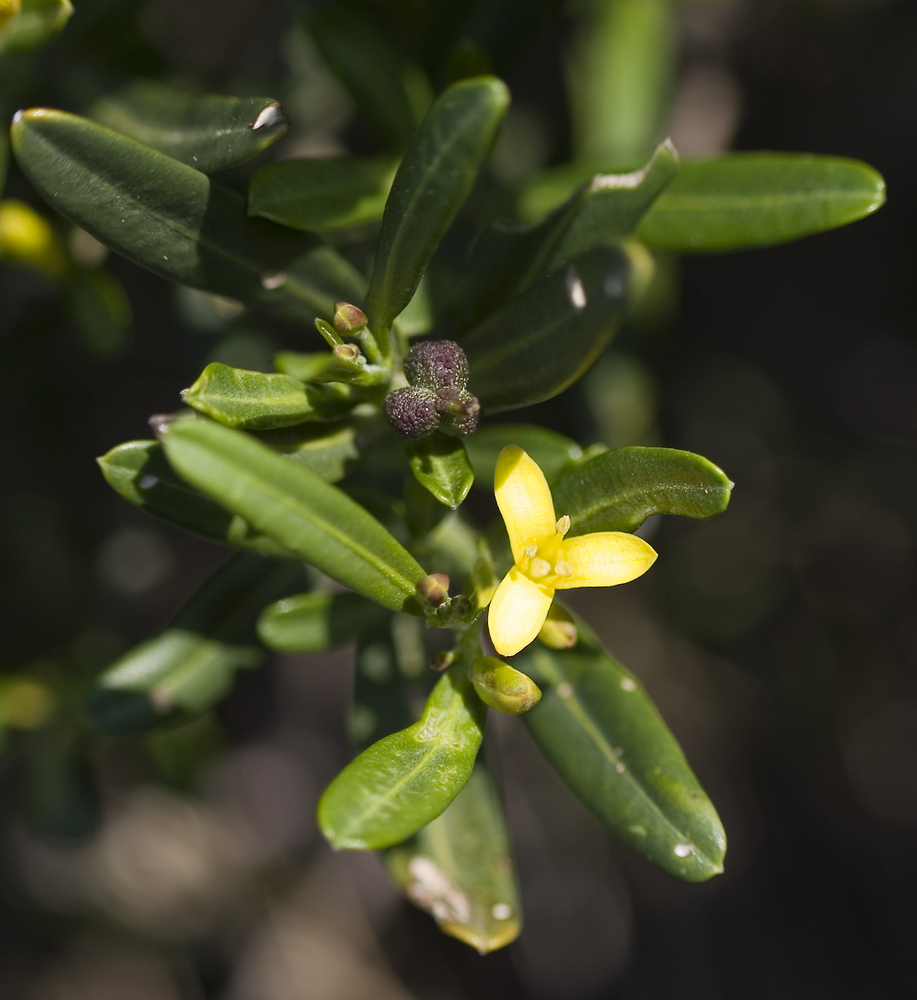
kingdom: Plantae
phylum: Tracheophyta
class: Magnoliopsida
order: Sapindales
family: Rutaceae
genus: Cneorum
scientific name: Cneorum tricoccon
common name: Spurge olive
